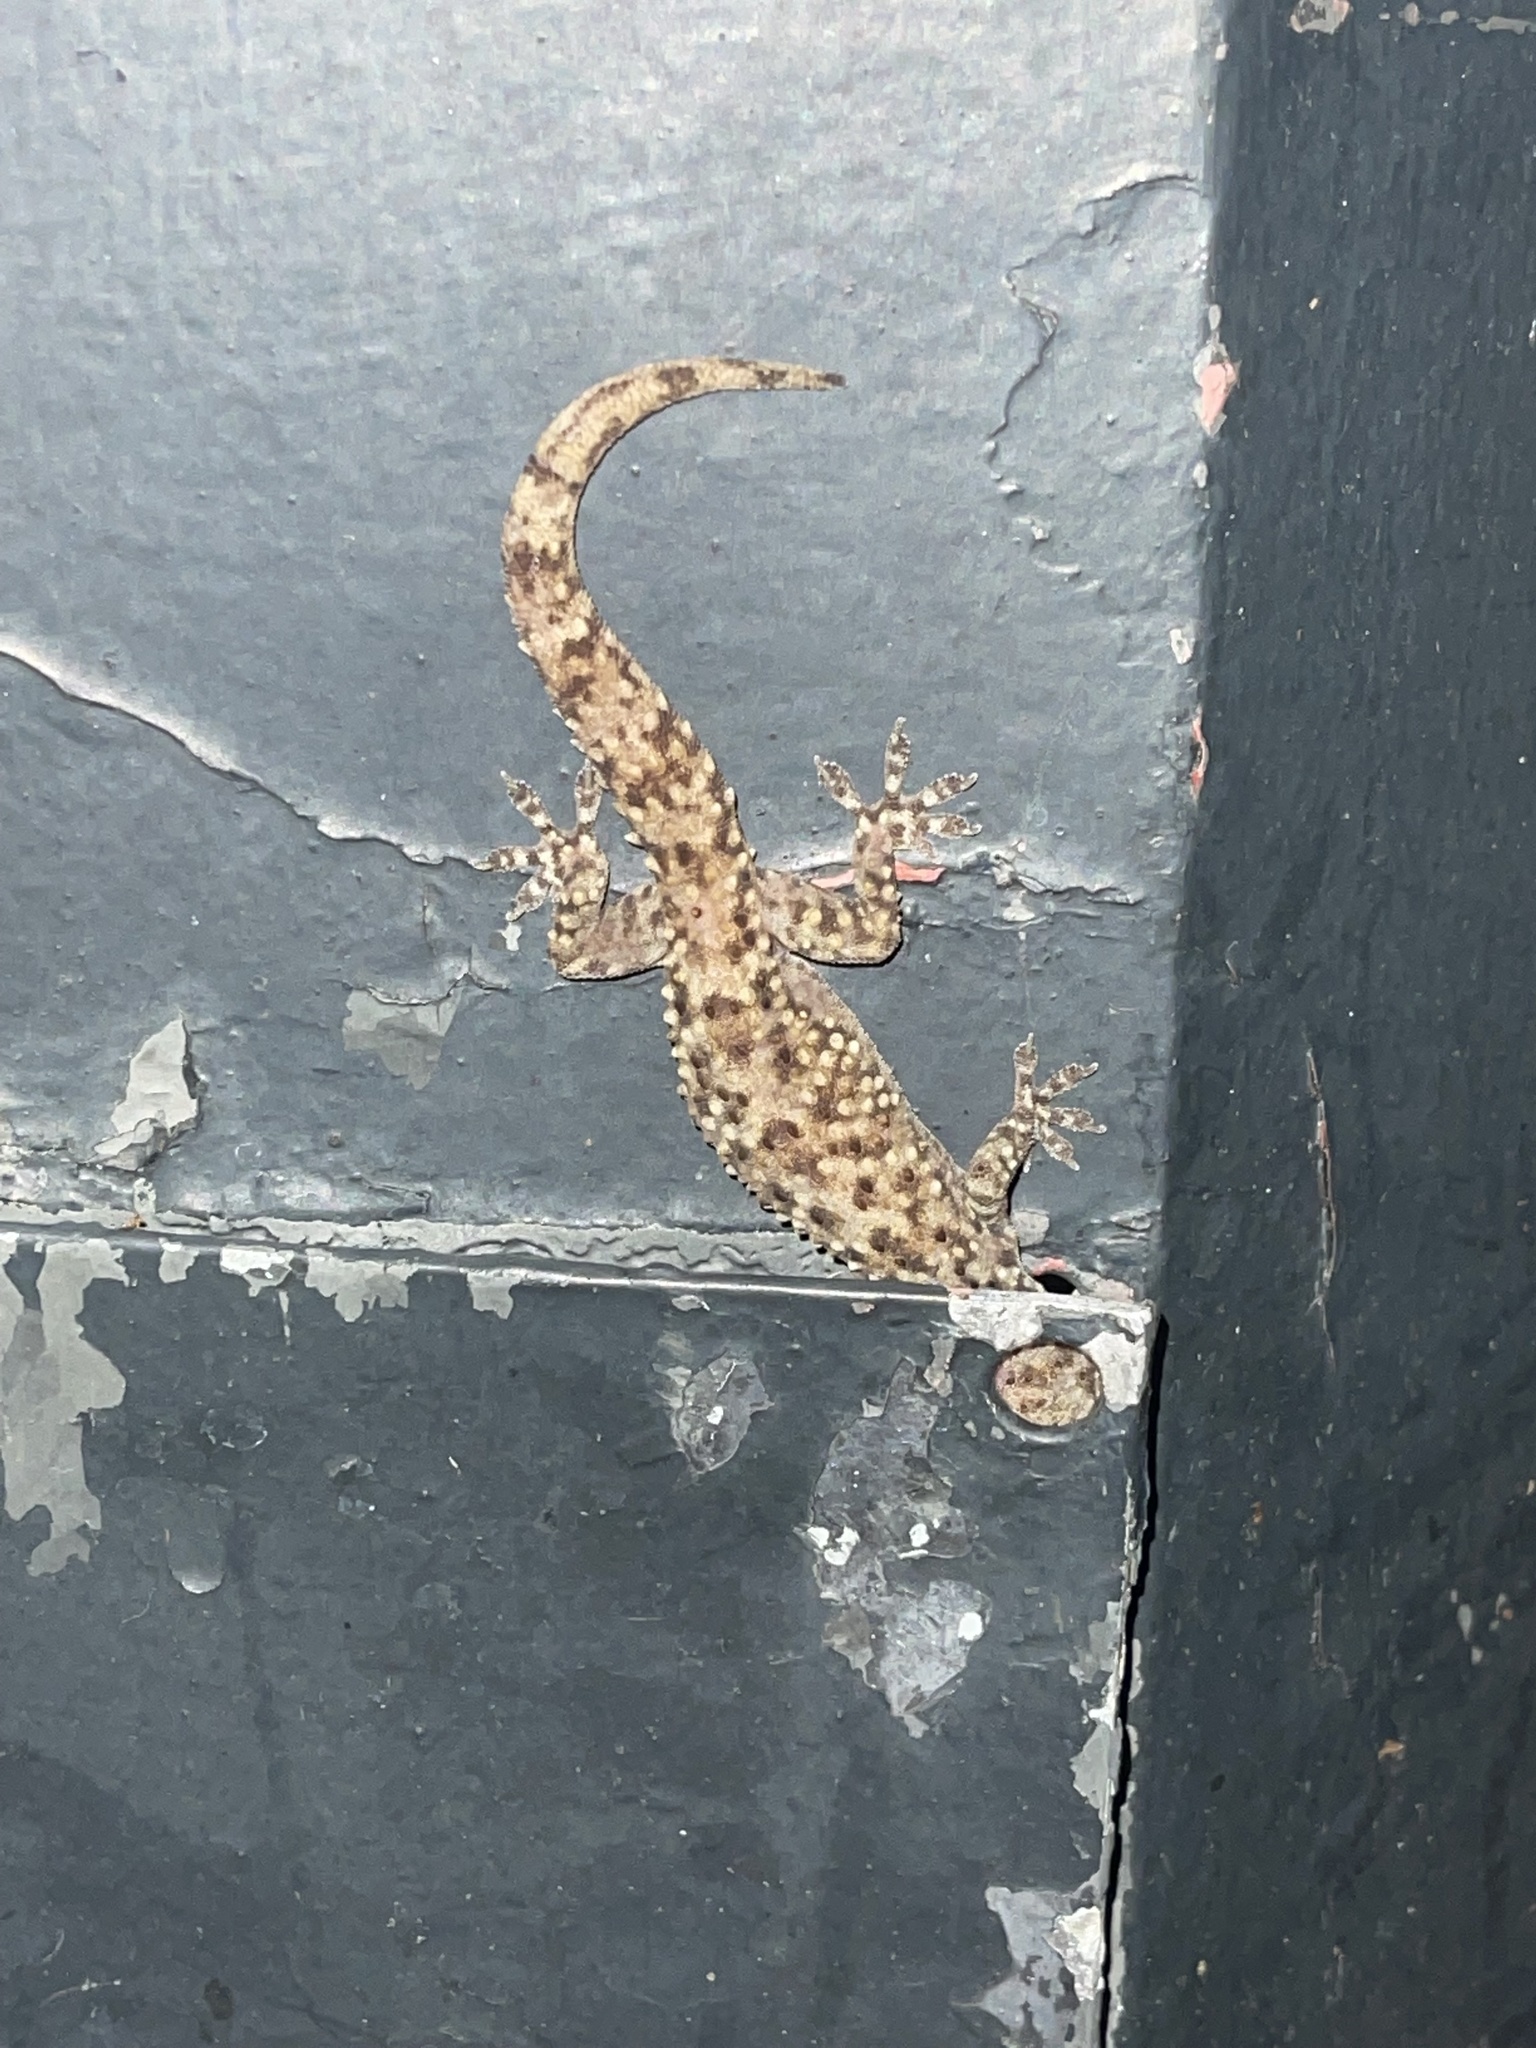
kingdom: Animalia
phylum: Chordata
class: Squamata
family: Gekkonidae
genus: Hemidactylus
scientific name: Hemidactylus turcicus
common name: Turkish gecko
